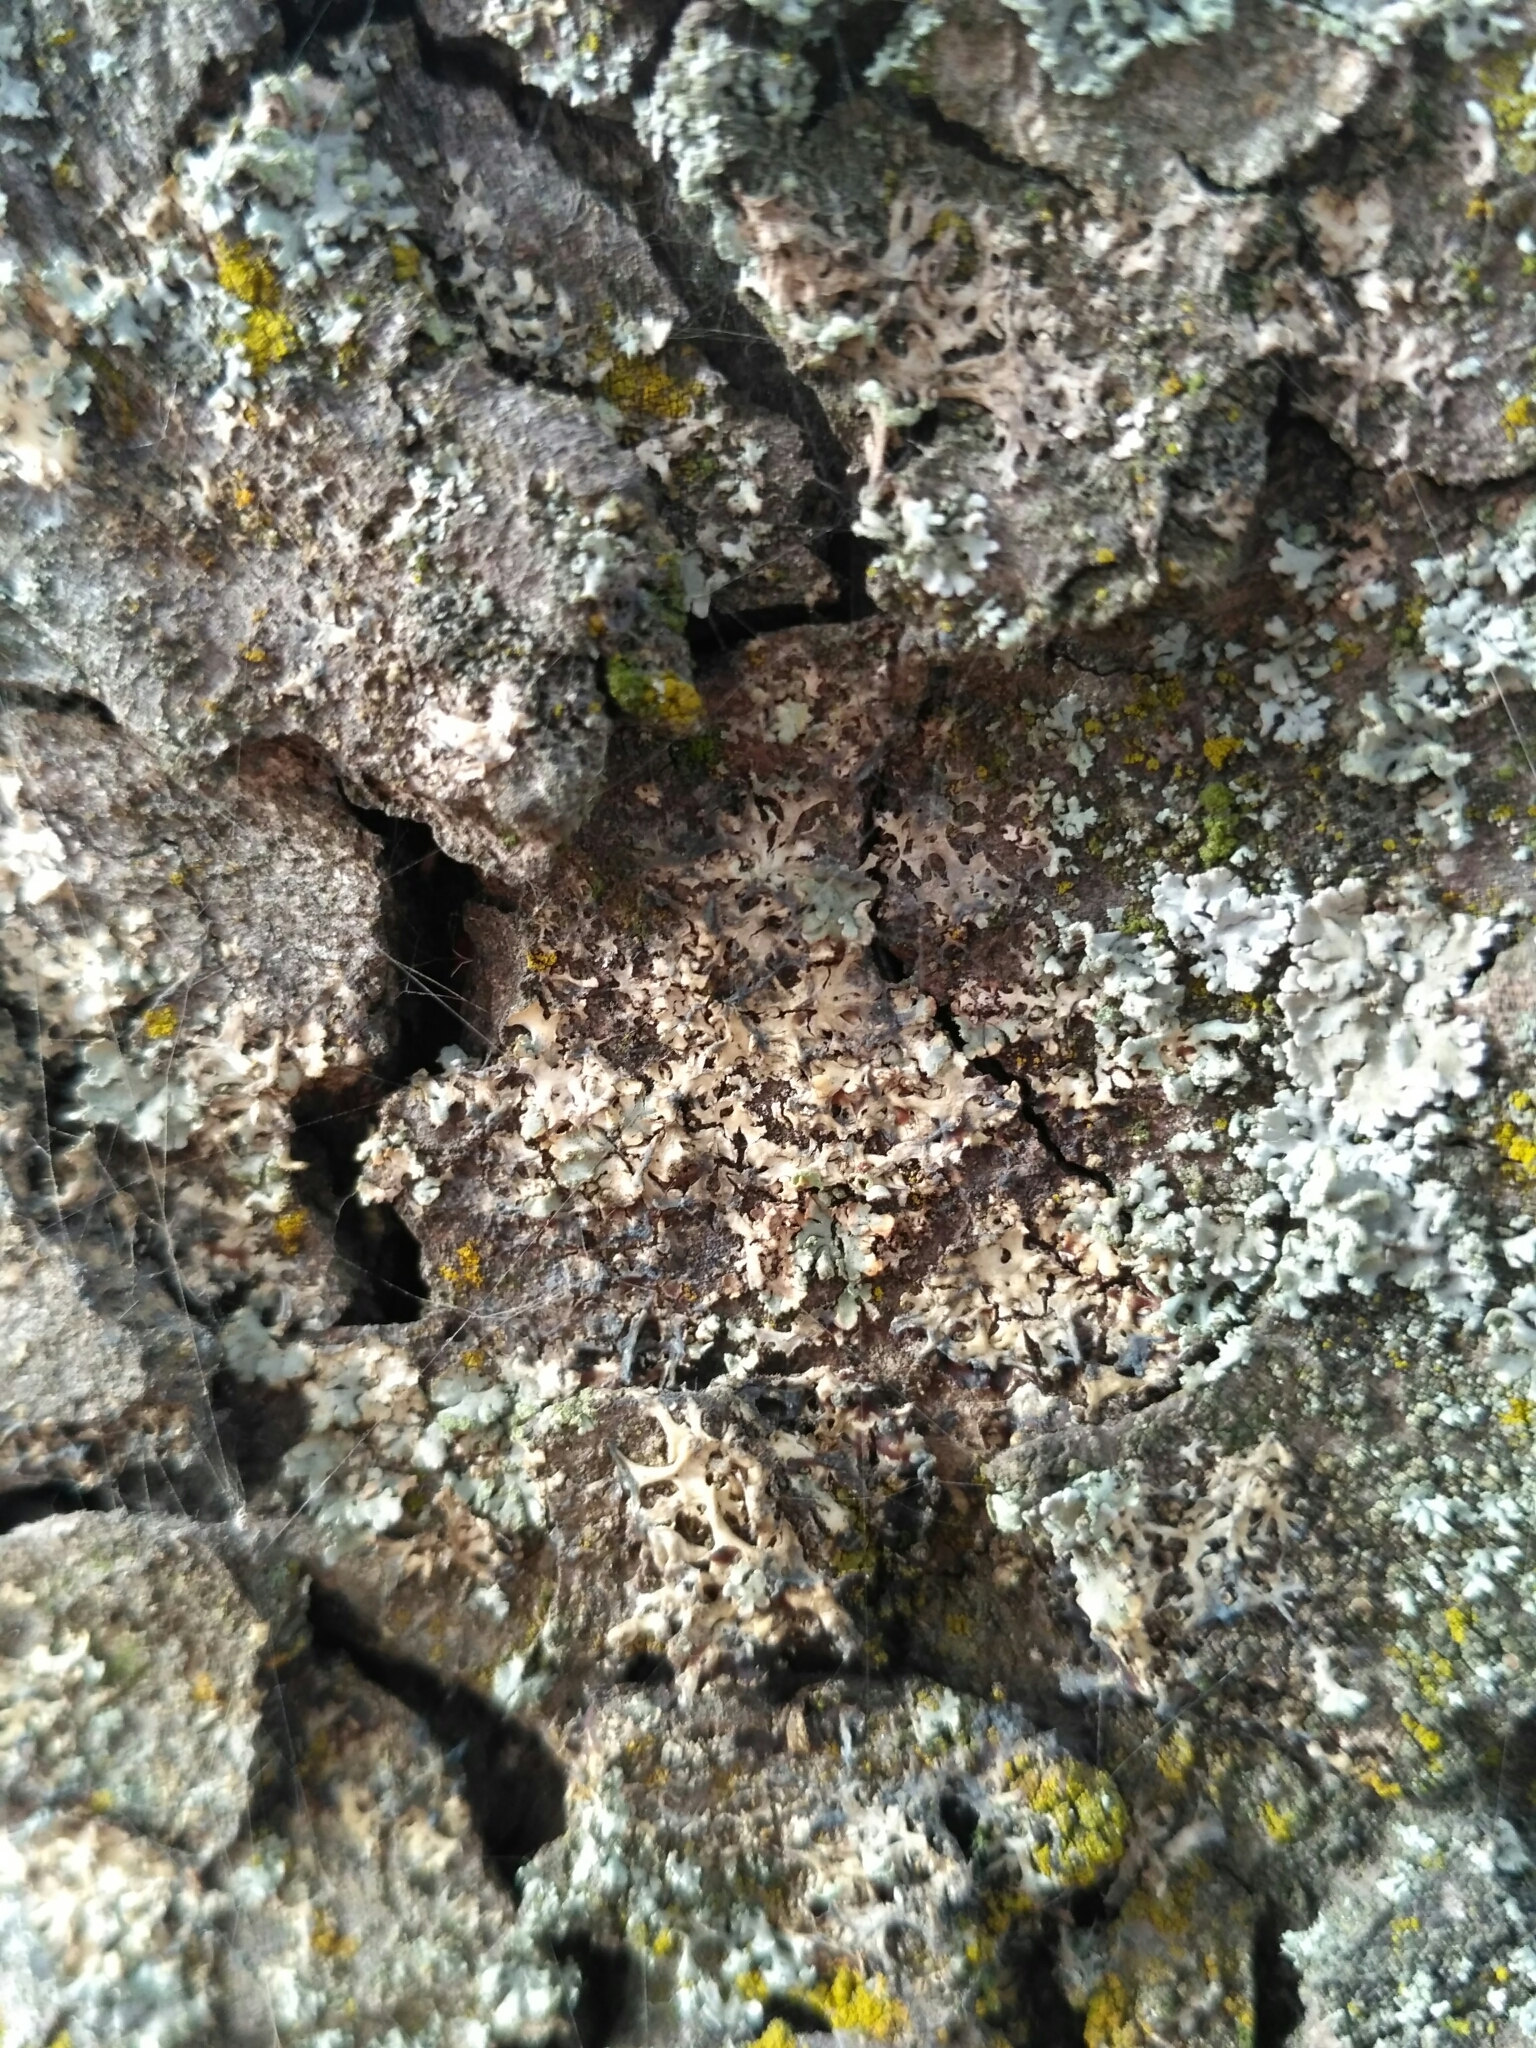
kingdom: Fungi
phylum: Basidiomycota
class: Agaricomycetes
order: Atheliales
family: Atheliaceae
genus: Athelia
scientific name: Athelia arachnoidea
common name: Candelabra duster
